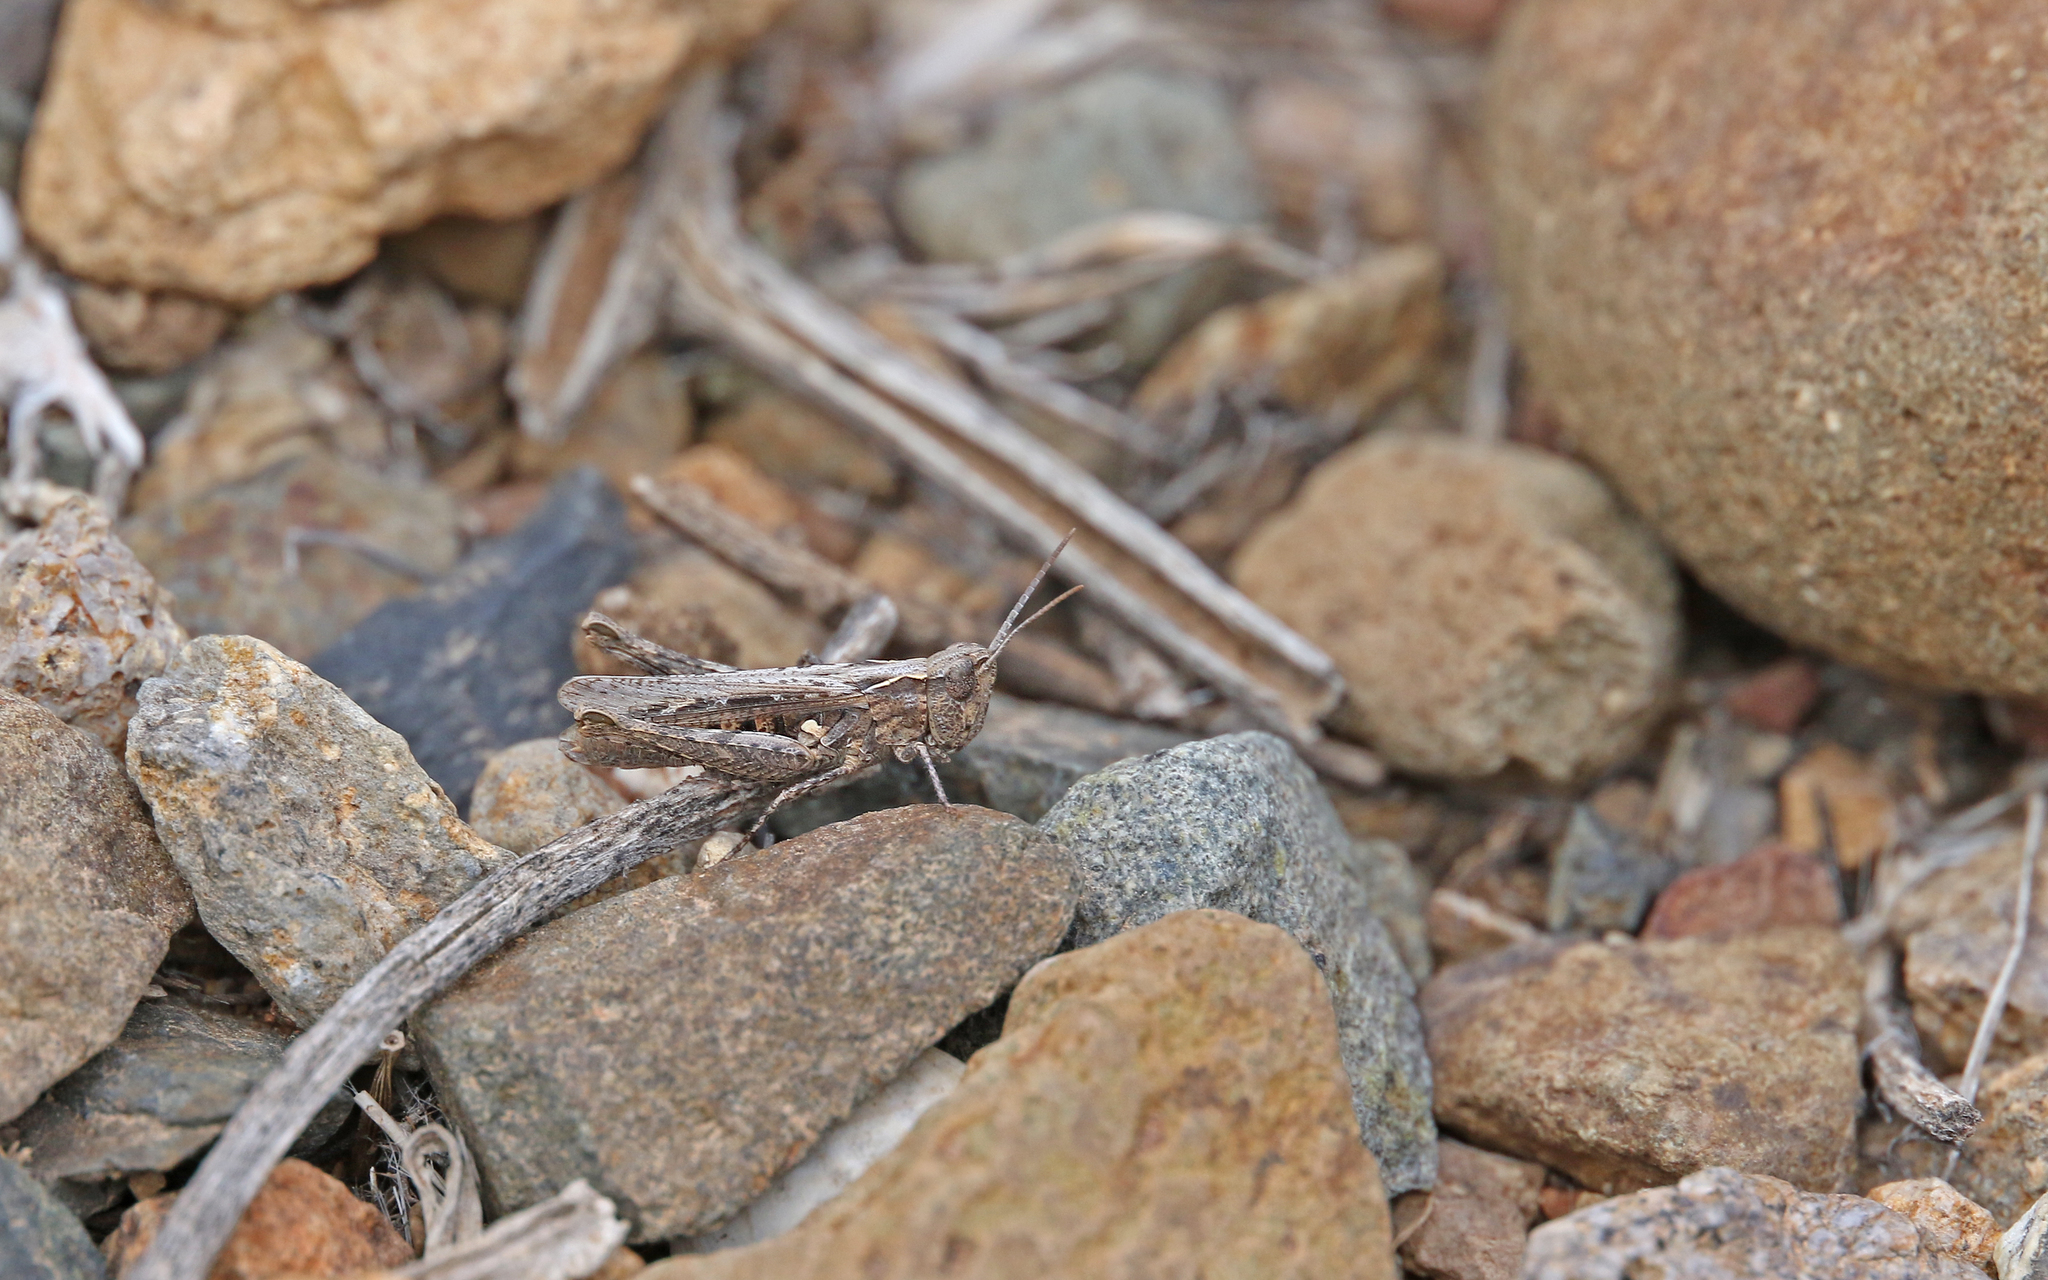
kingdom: Animalia
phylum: Arthropoda
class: Insecta
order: Orthoptera
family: Acrididae
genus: Omocestus
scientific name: Omocestus simonyi
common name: Purpurarian grasshopper
